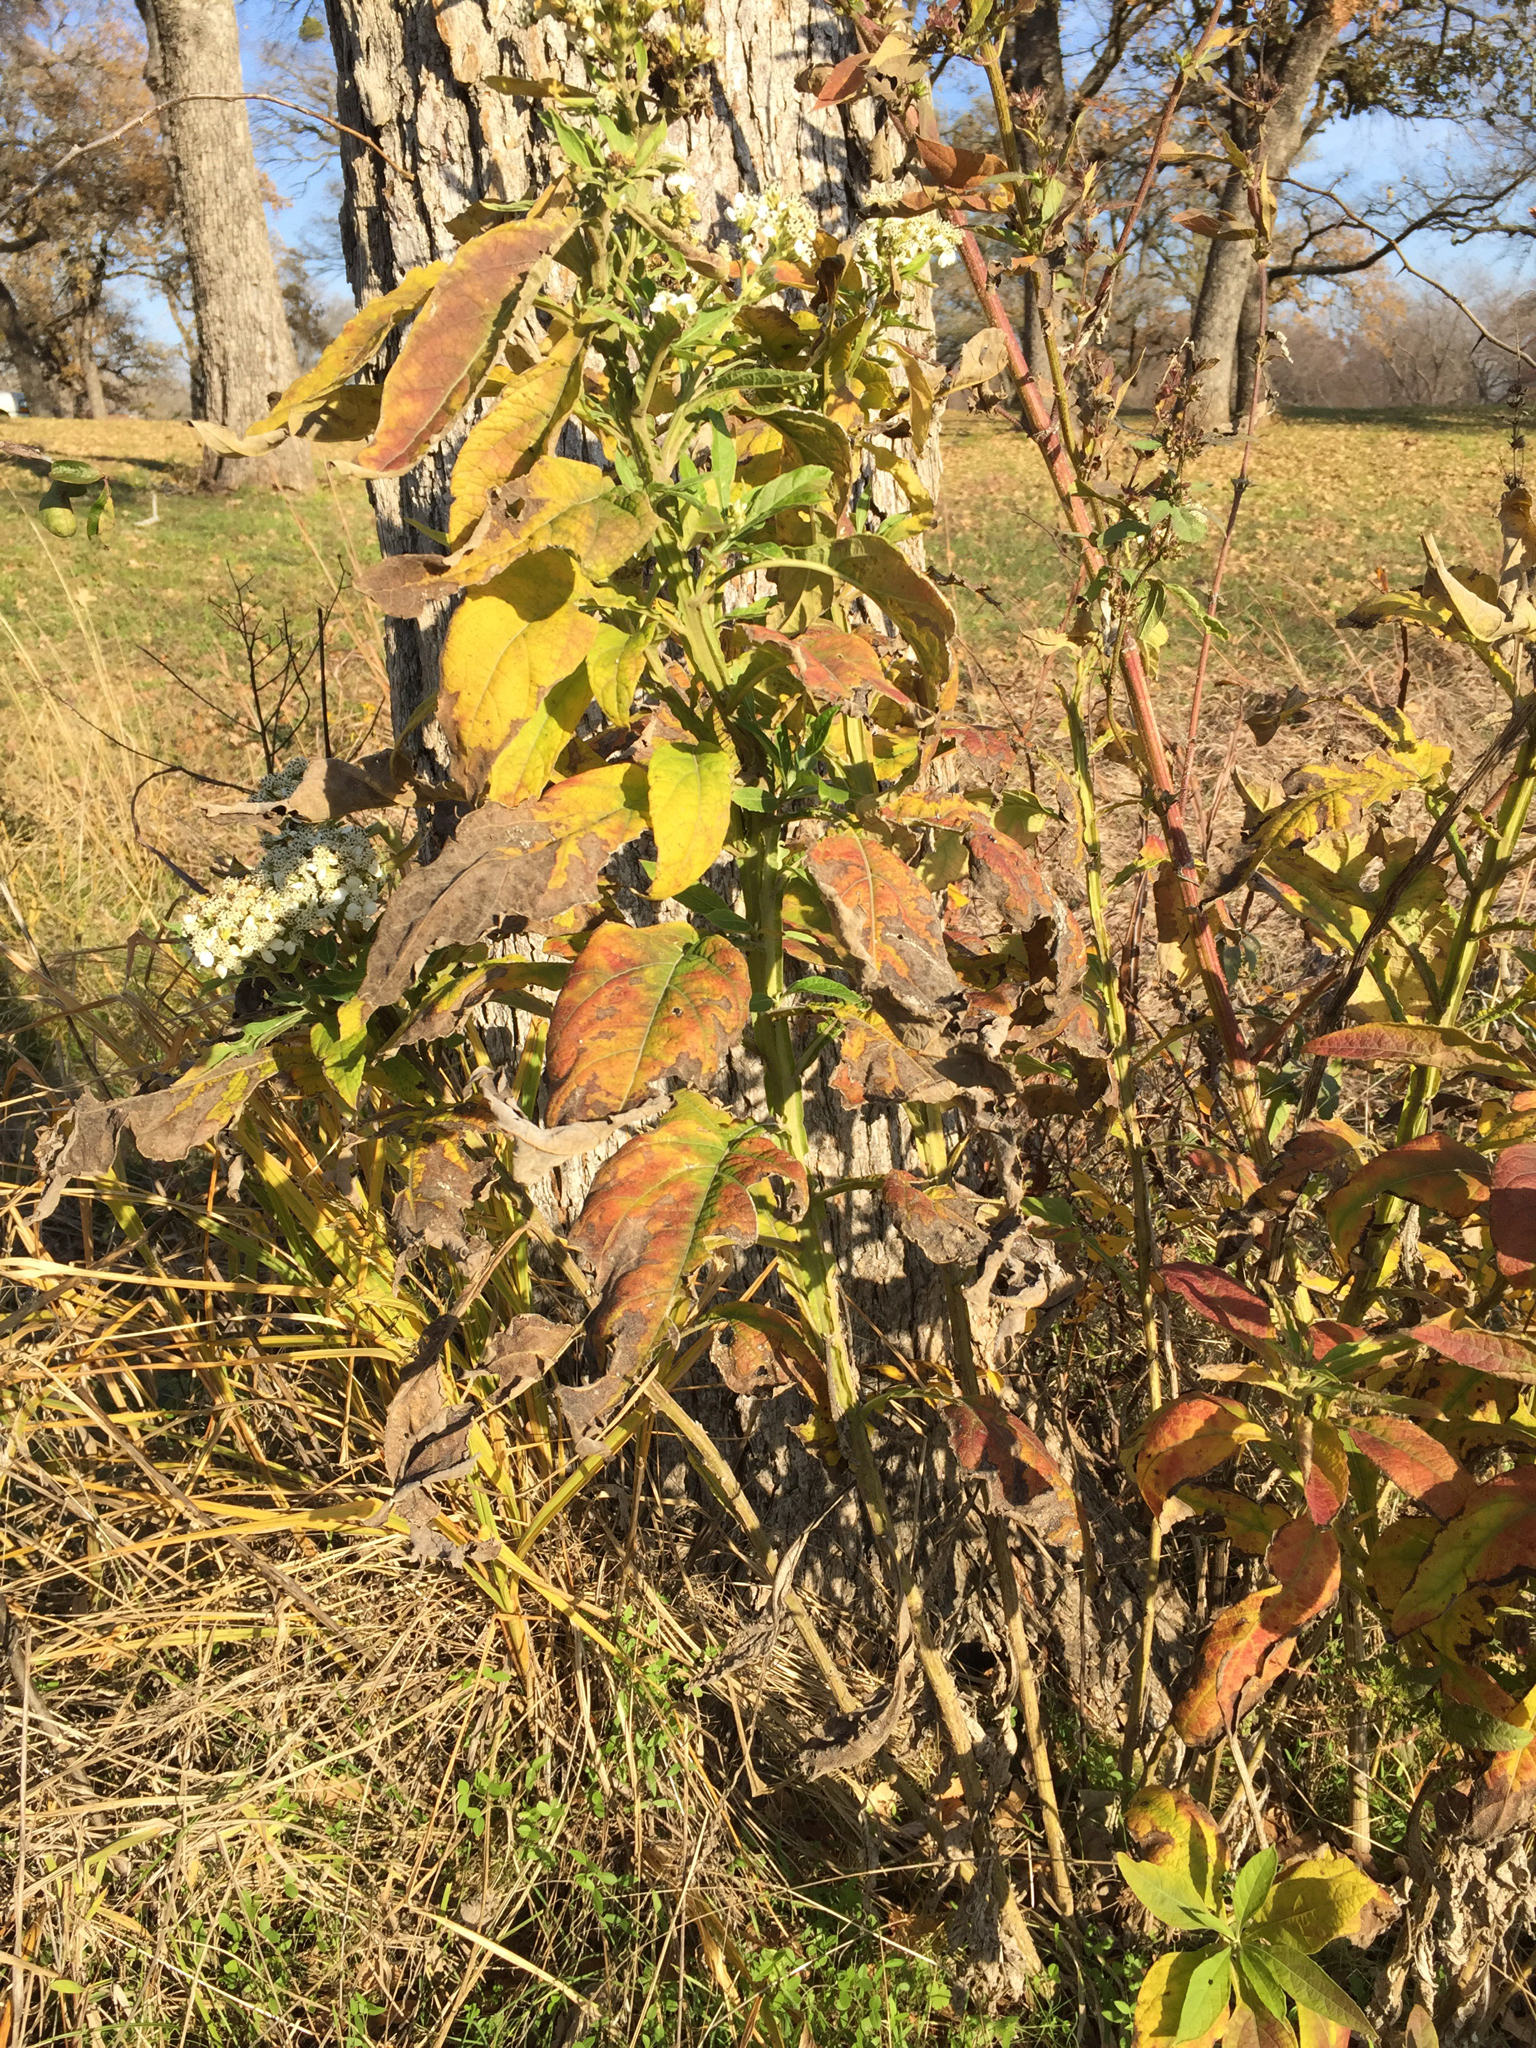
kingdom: Plantae
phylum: Tracheophyta
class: Magnoliopsida
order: Asterales
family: Asteraceae
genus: Verbesina
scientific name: Verbesina virginica
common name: Frostweed
